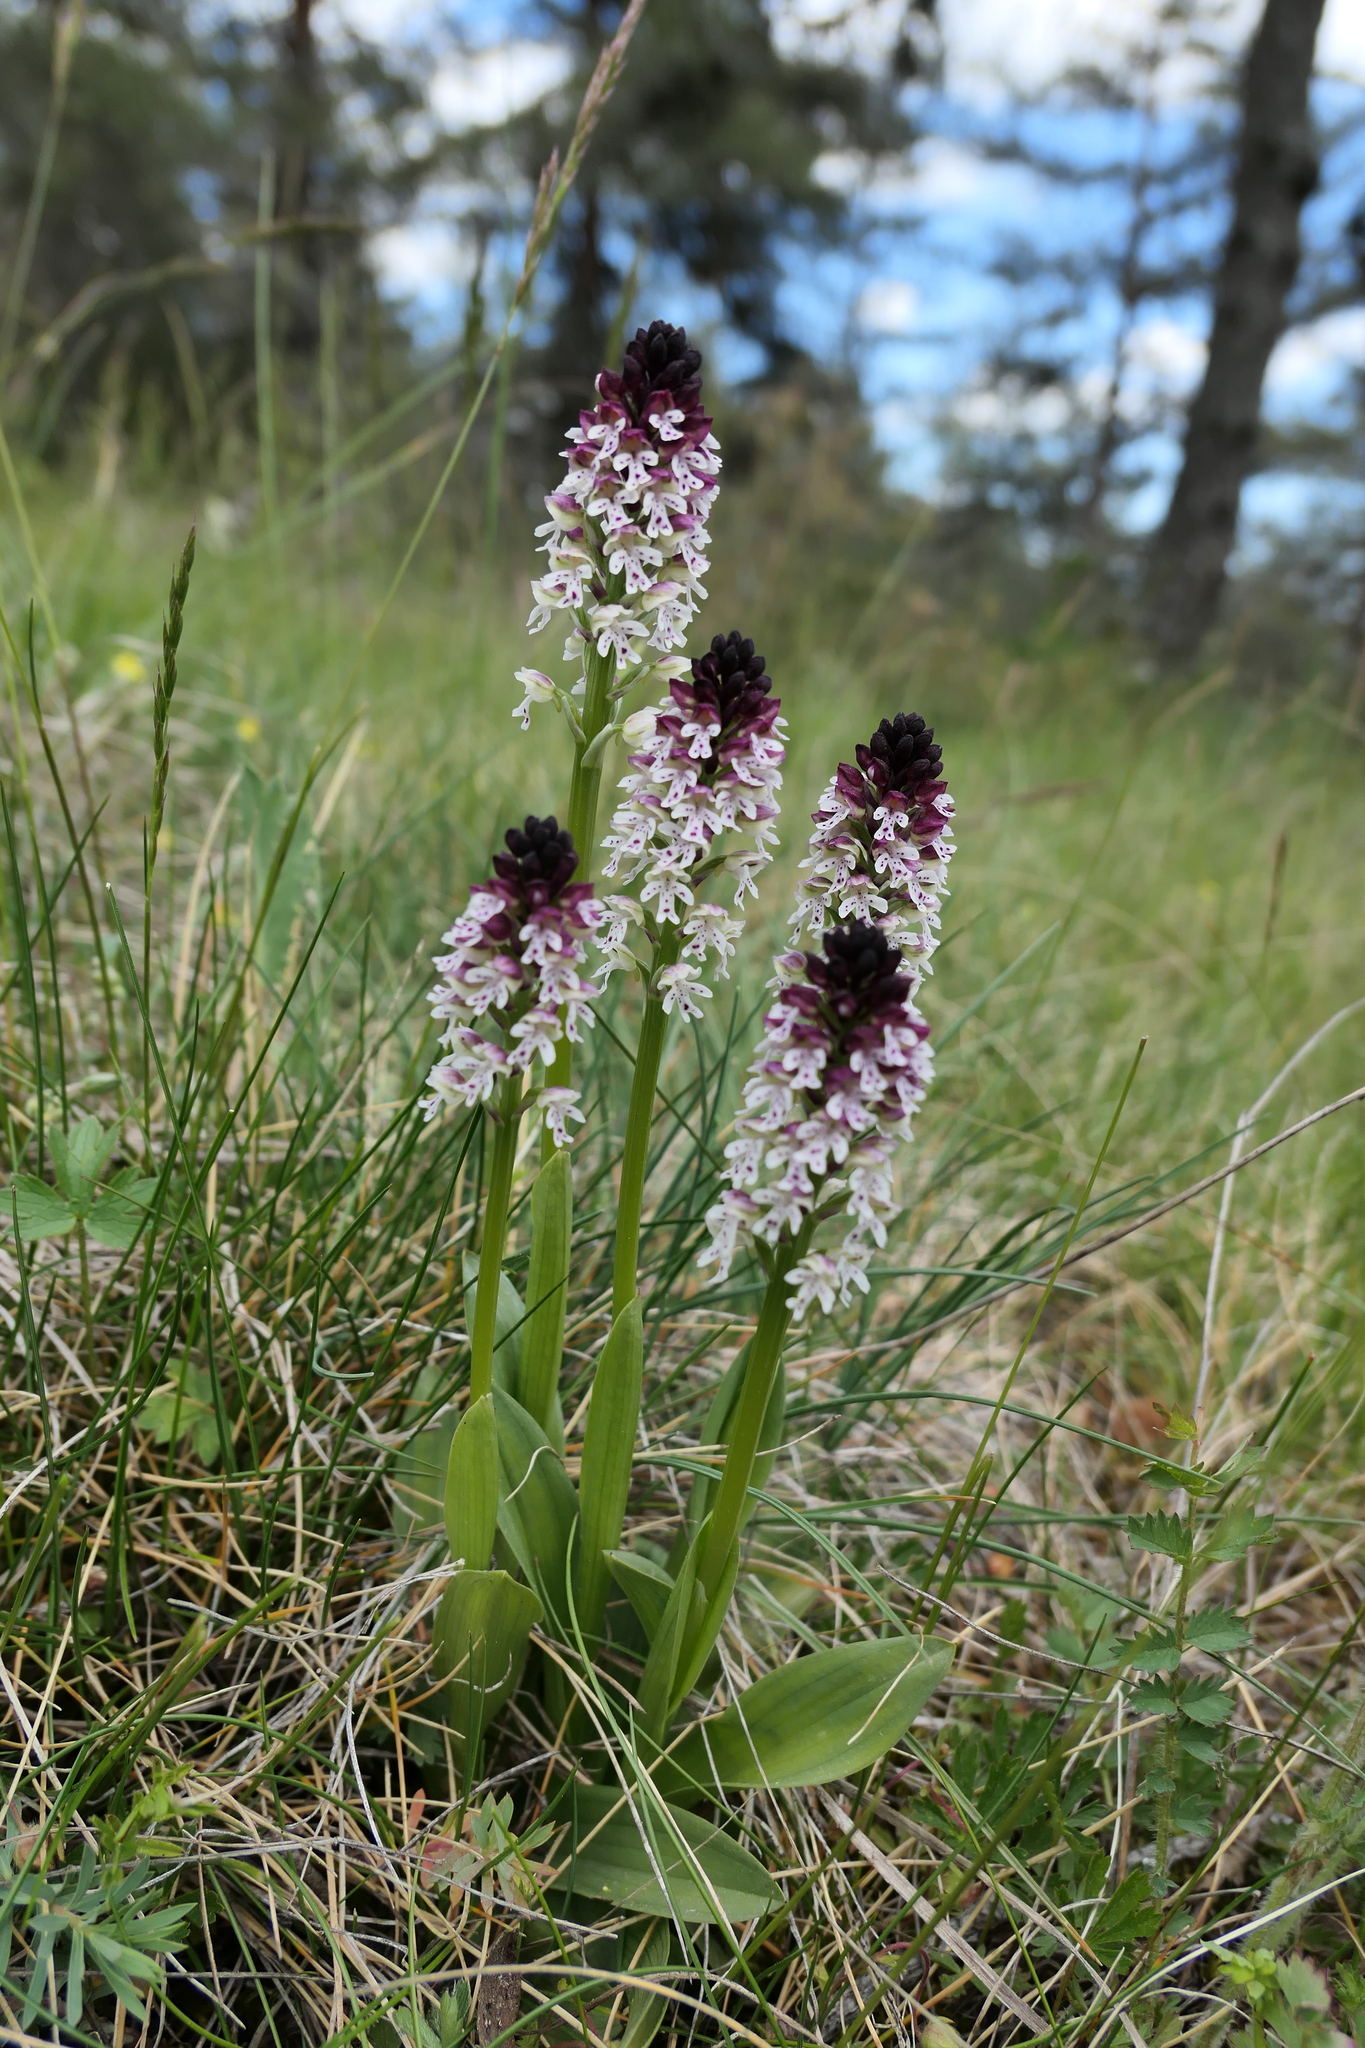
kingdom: Plantae
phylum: Tracheophyta
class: Liliopsida
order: Asparagales
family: Orchidaceae
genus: Neotinea
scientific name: Neotinea ustulata
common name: Burnt orchid
